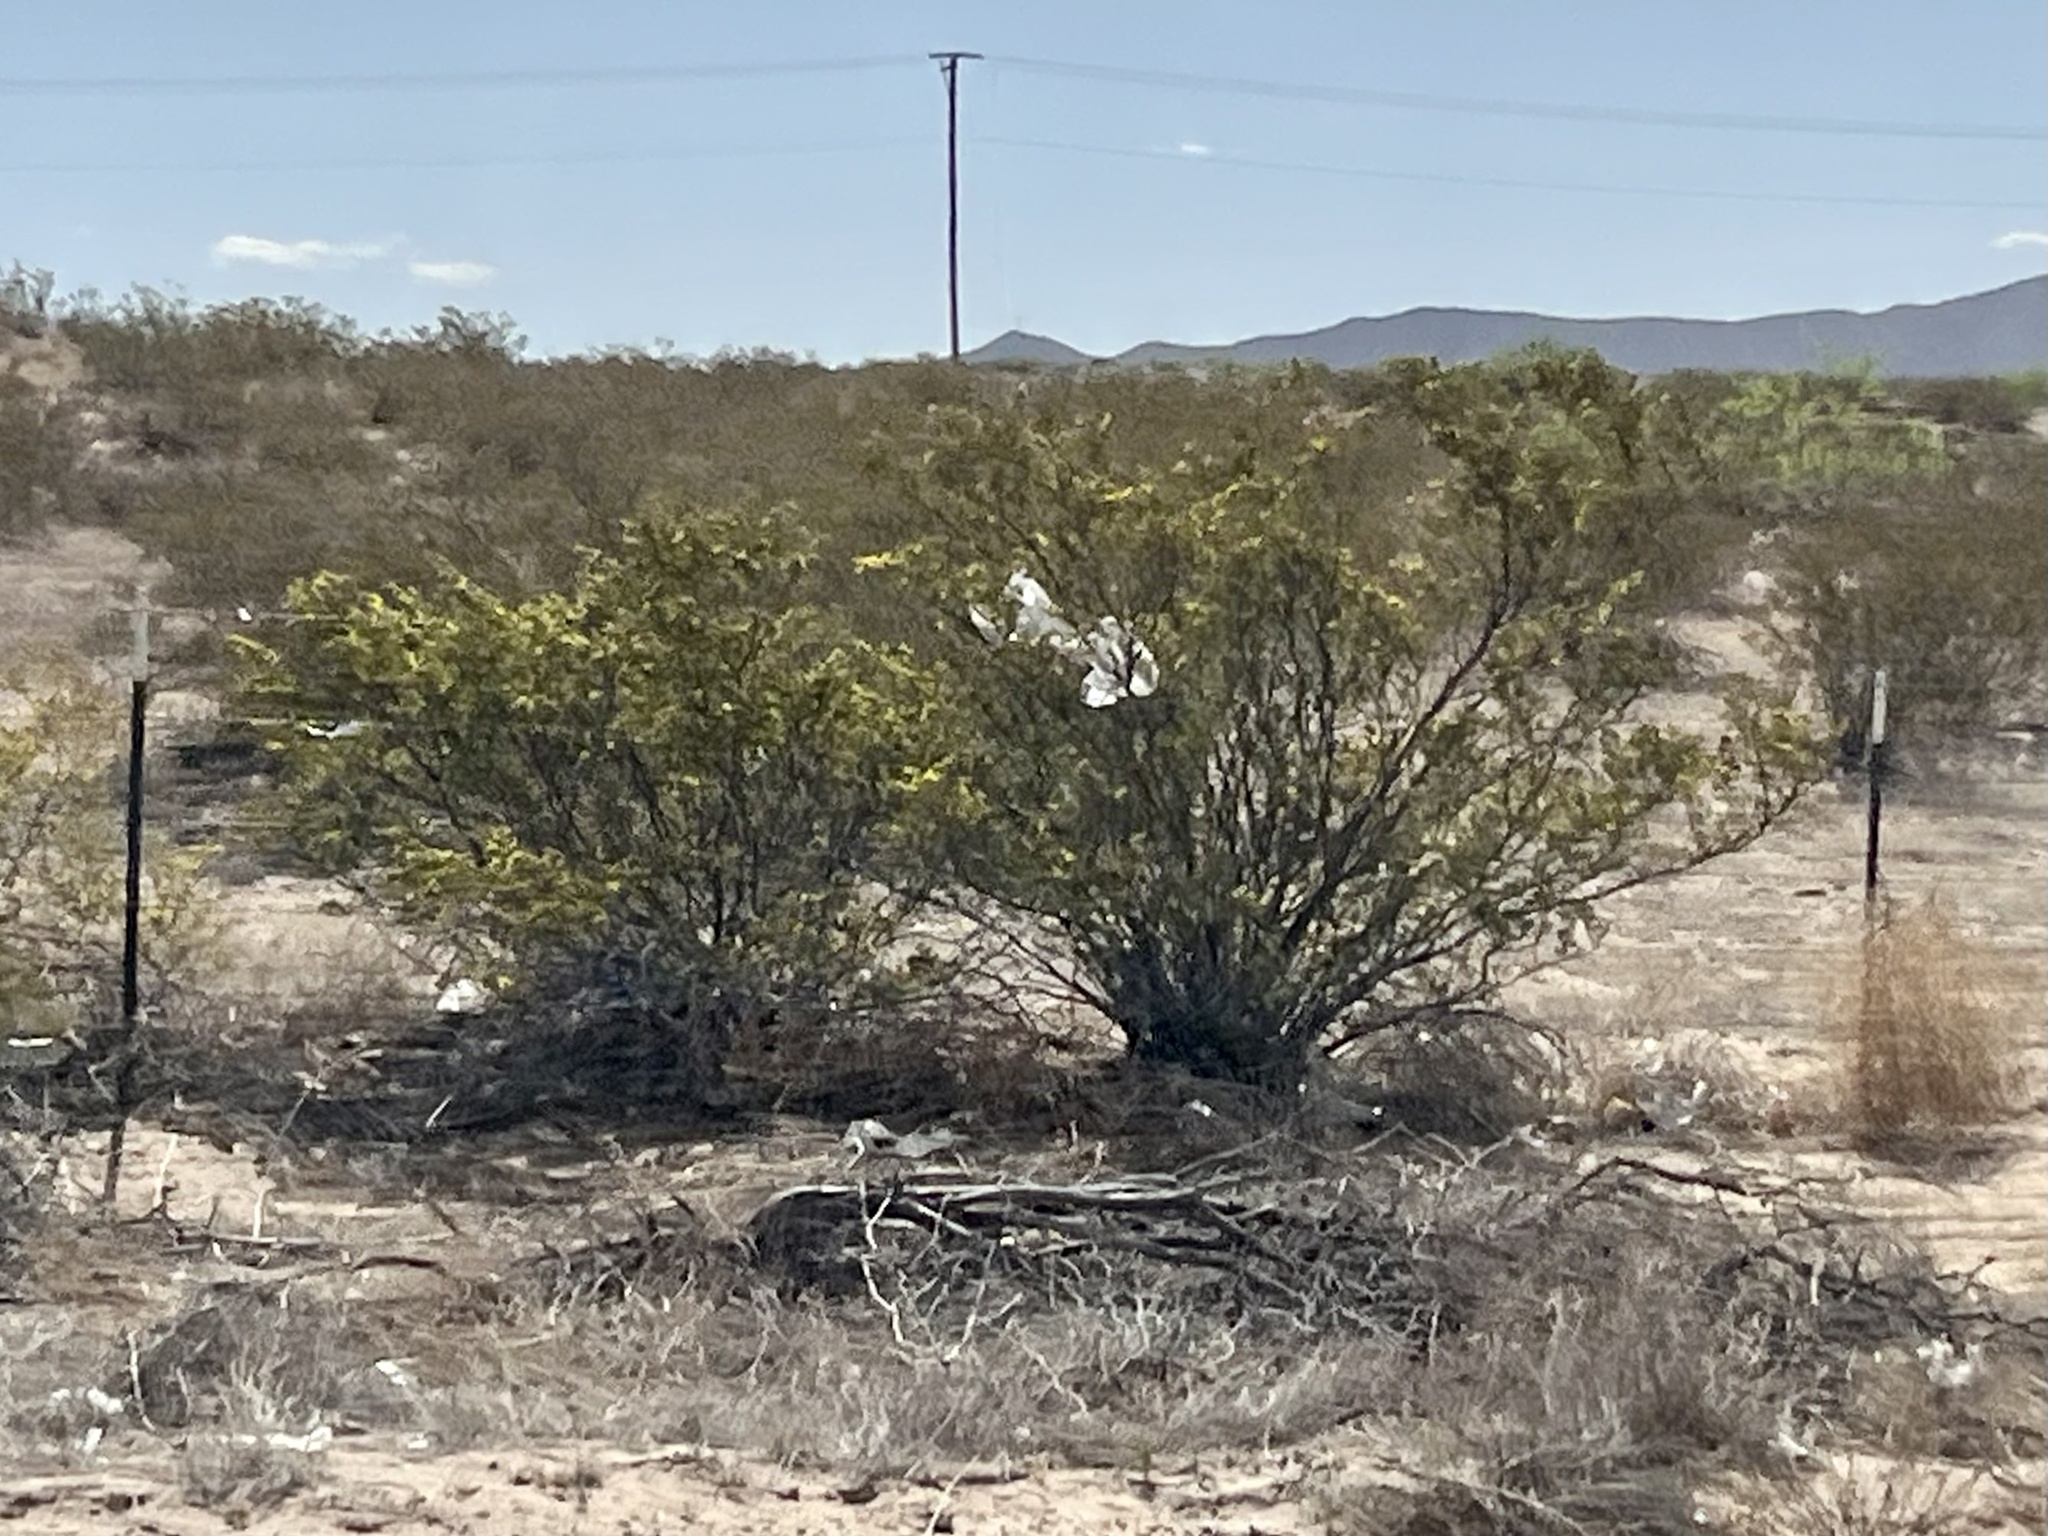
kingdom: Plantae
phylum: Tracheophyta
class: Magnoliopsida
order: Zygophyllales
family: Zygophyllaceae
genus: Larrea
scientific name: Larrea tridentata
